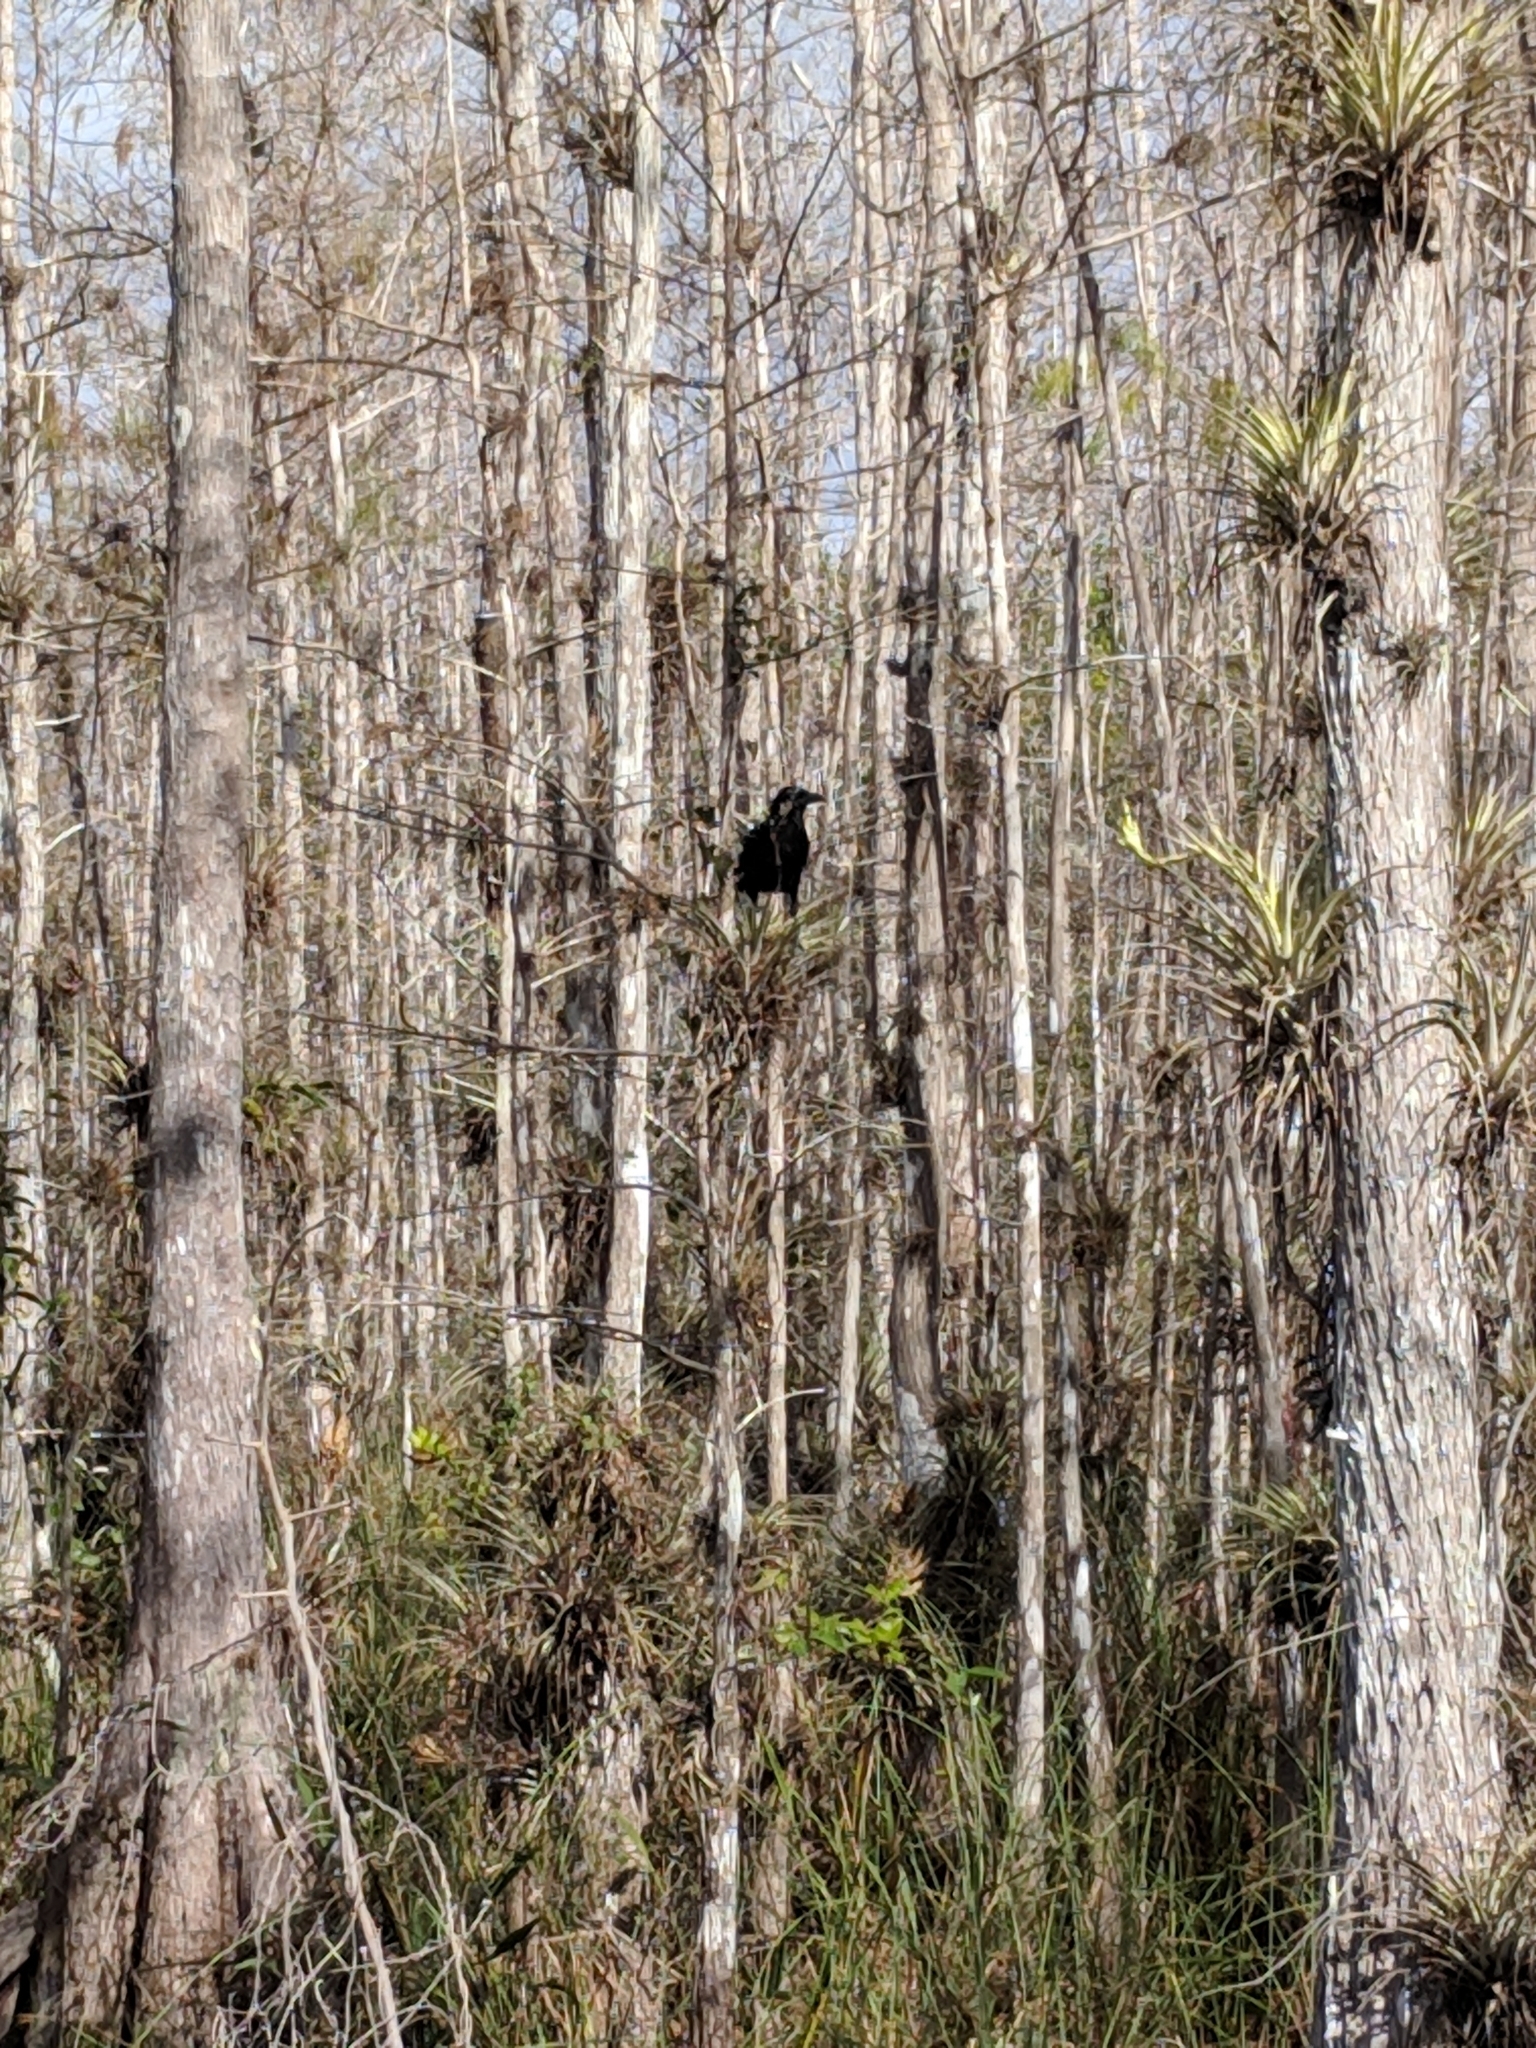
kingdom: Animalia
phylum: Chordata
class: Aves
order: Passeriformes
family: Corvidae
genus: Corvus
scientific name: Corvus brachyrhynchos
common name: American crow
